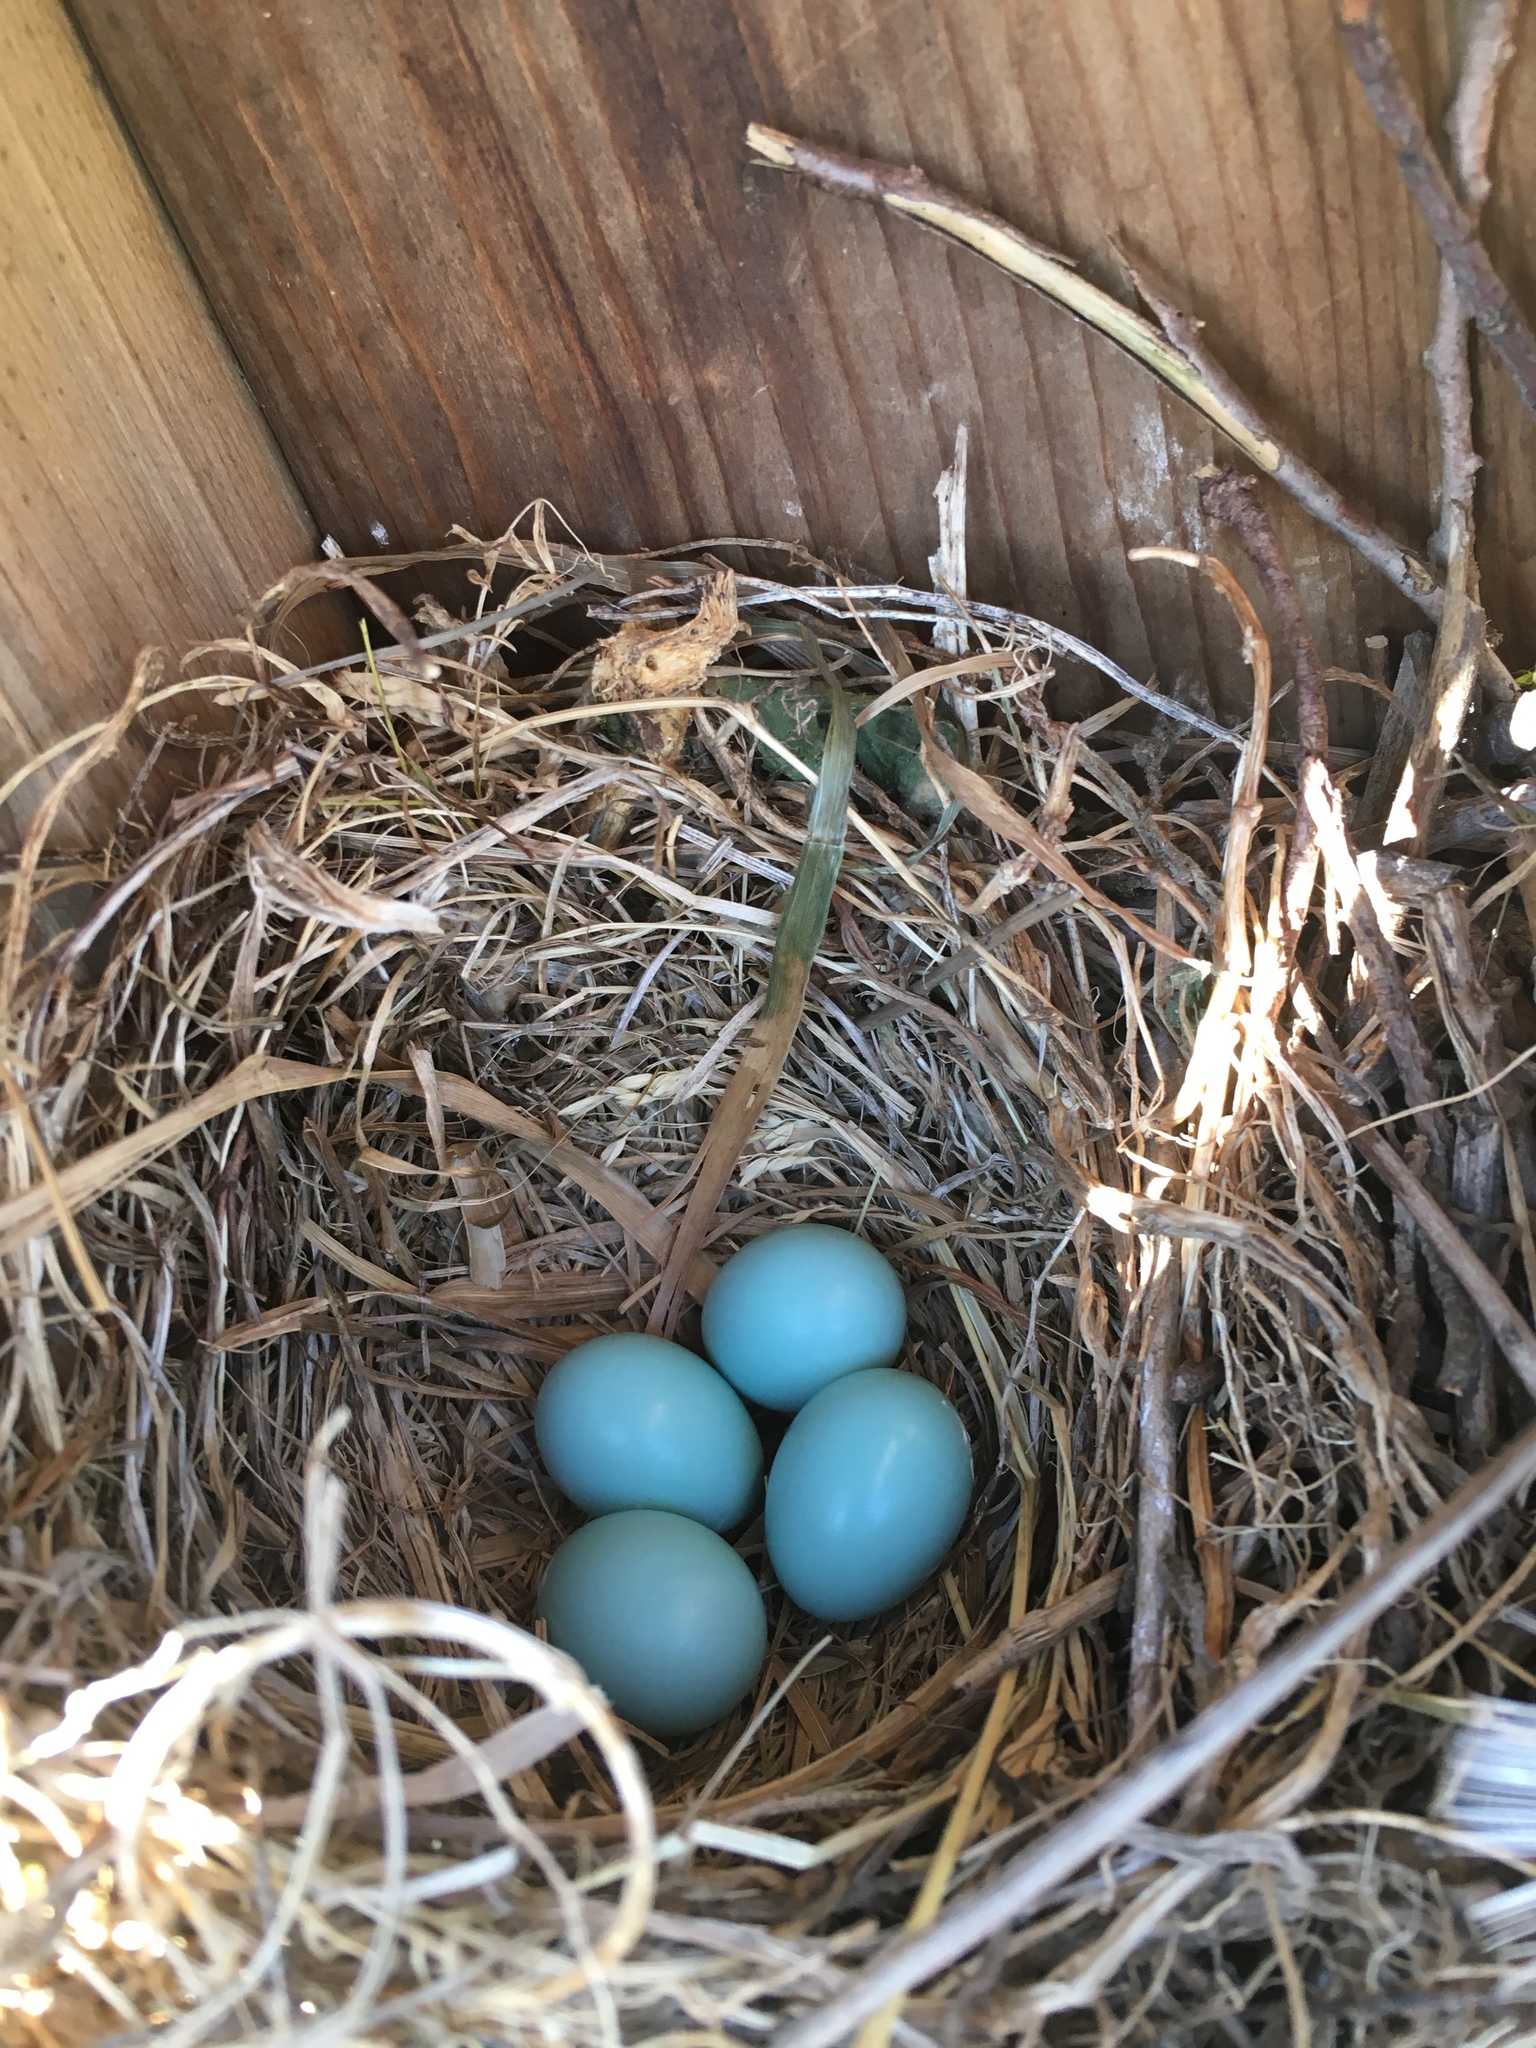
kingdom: Animalia
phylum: Chordata
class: Aves
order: Passeriformes
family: Turdidae
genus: Sialia
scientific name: Sialia sialis
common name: Eastern bluebird
